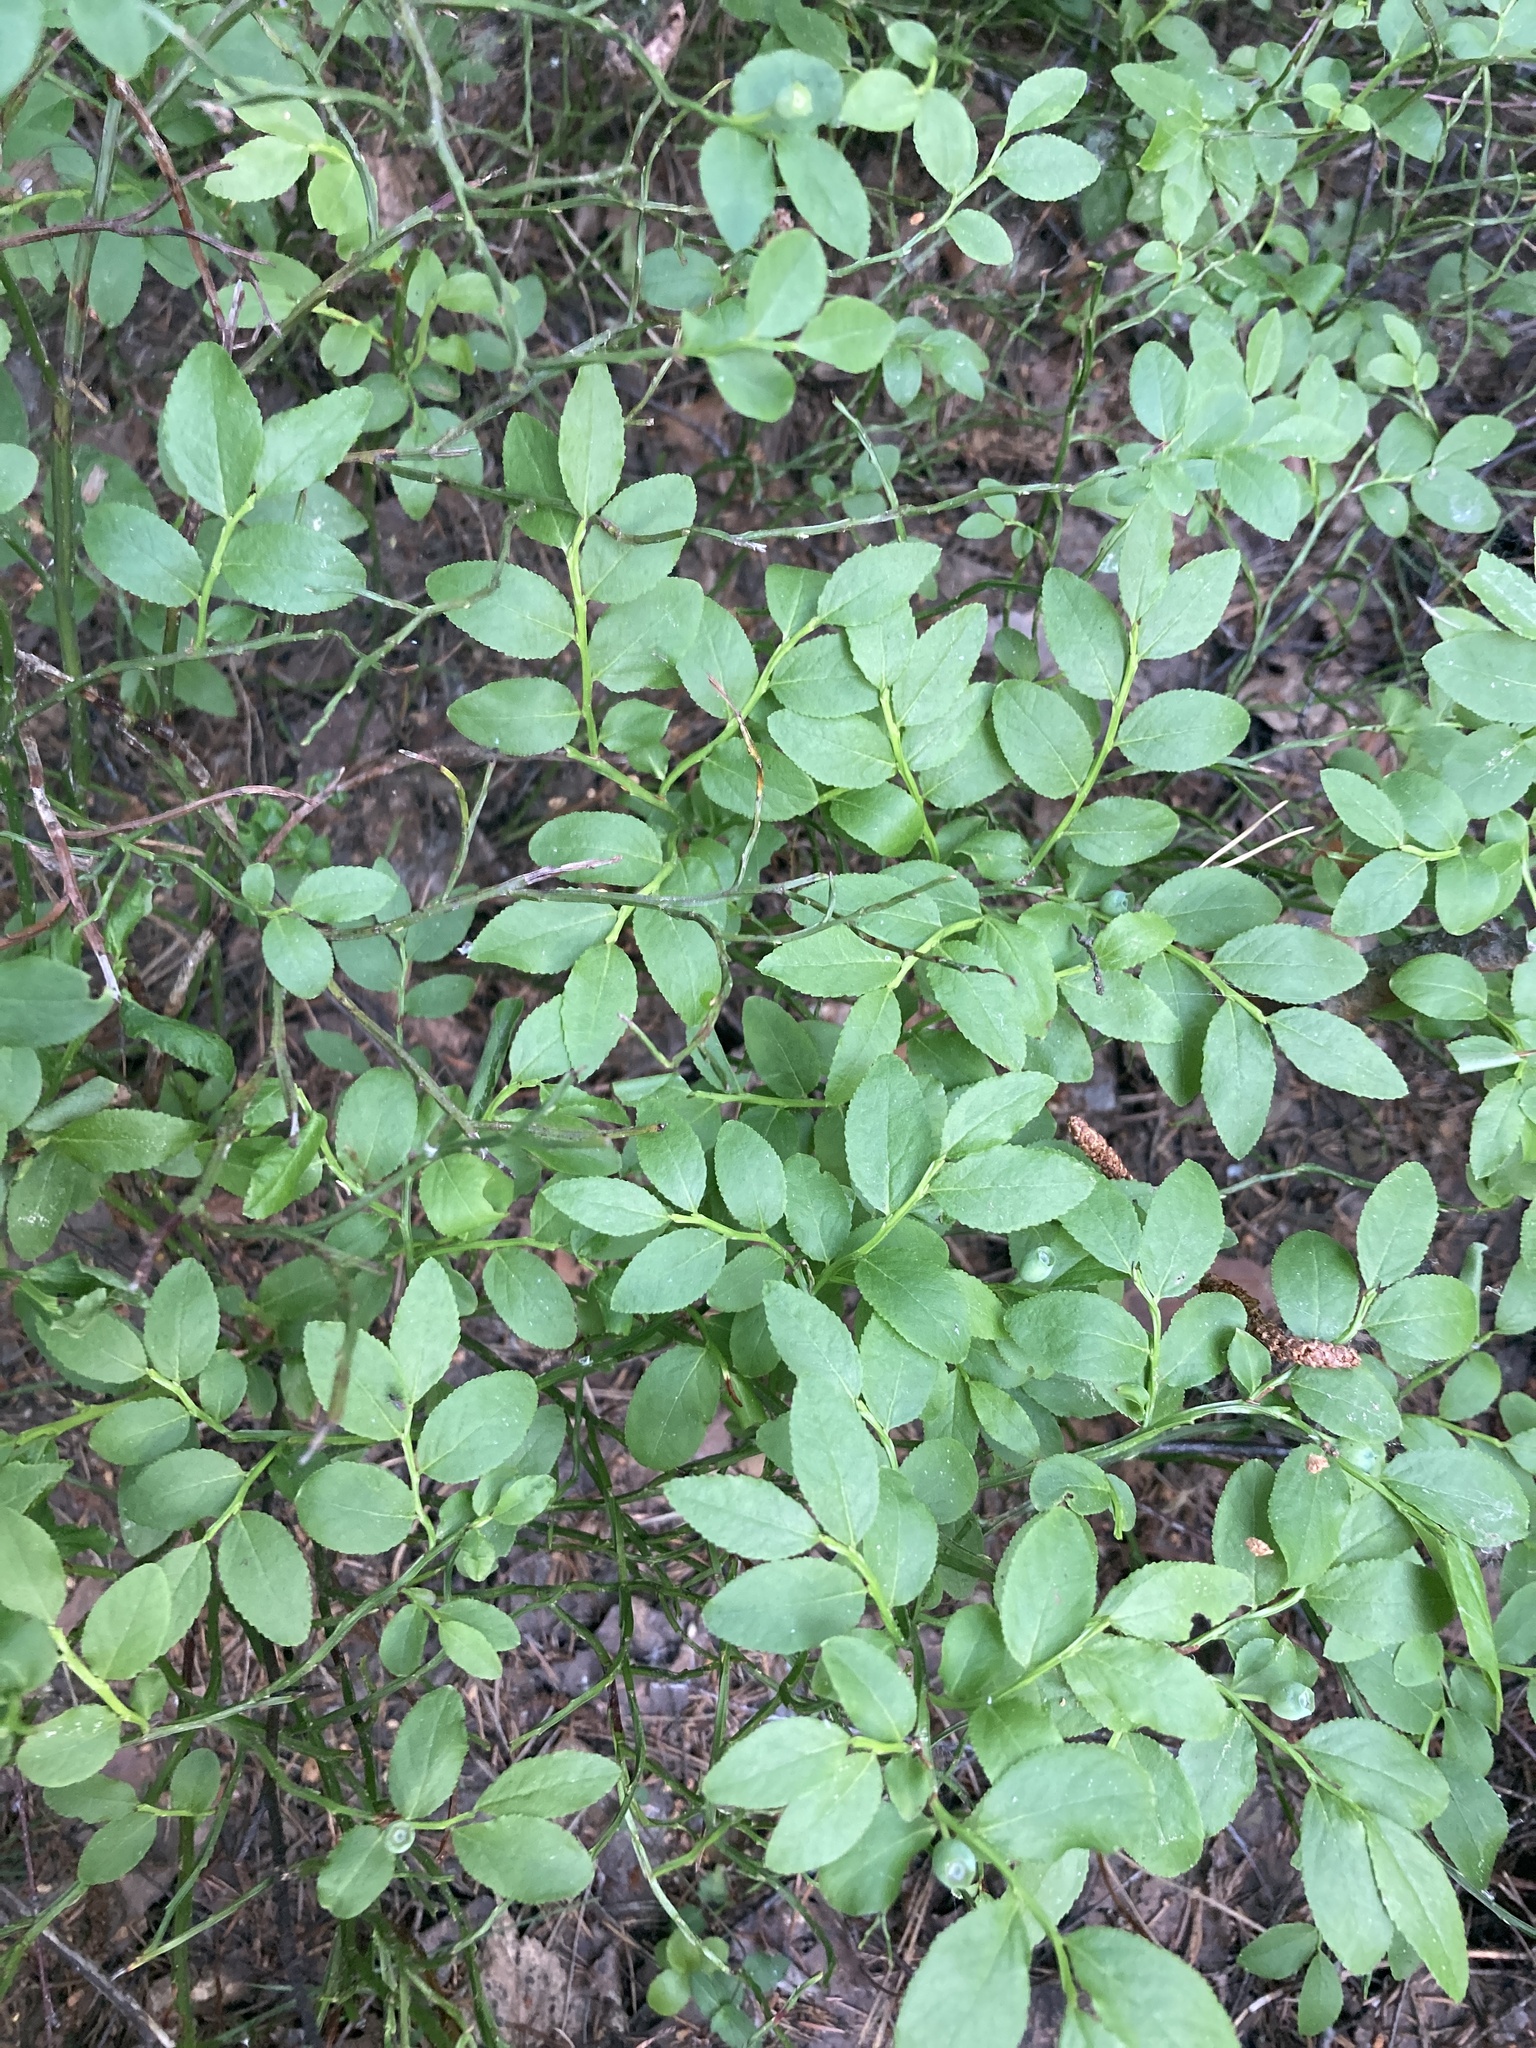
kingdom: Plantae
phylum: Tracheophyta
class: Magnoliopsida
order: Ericales
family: Ericaceae
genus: Vaccinium
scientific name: Vaccinium myrtillus
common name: Bilberry
